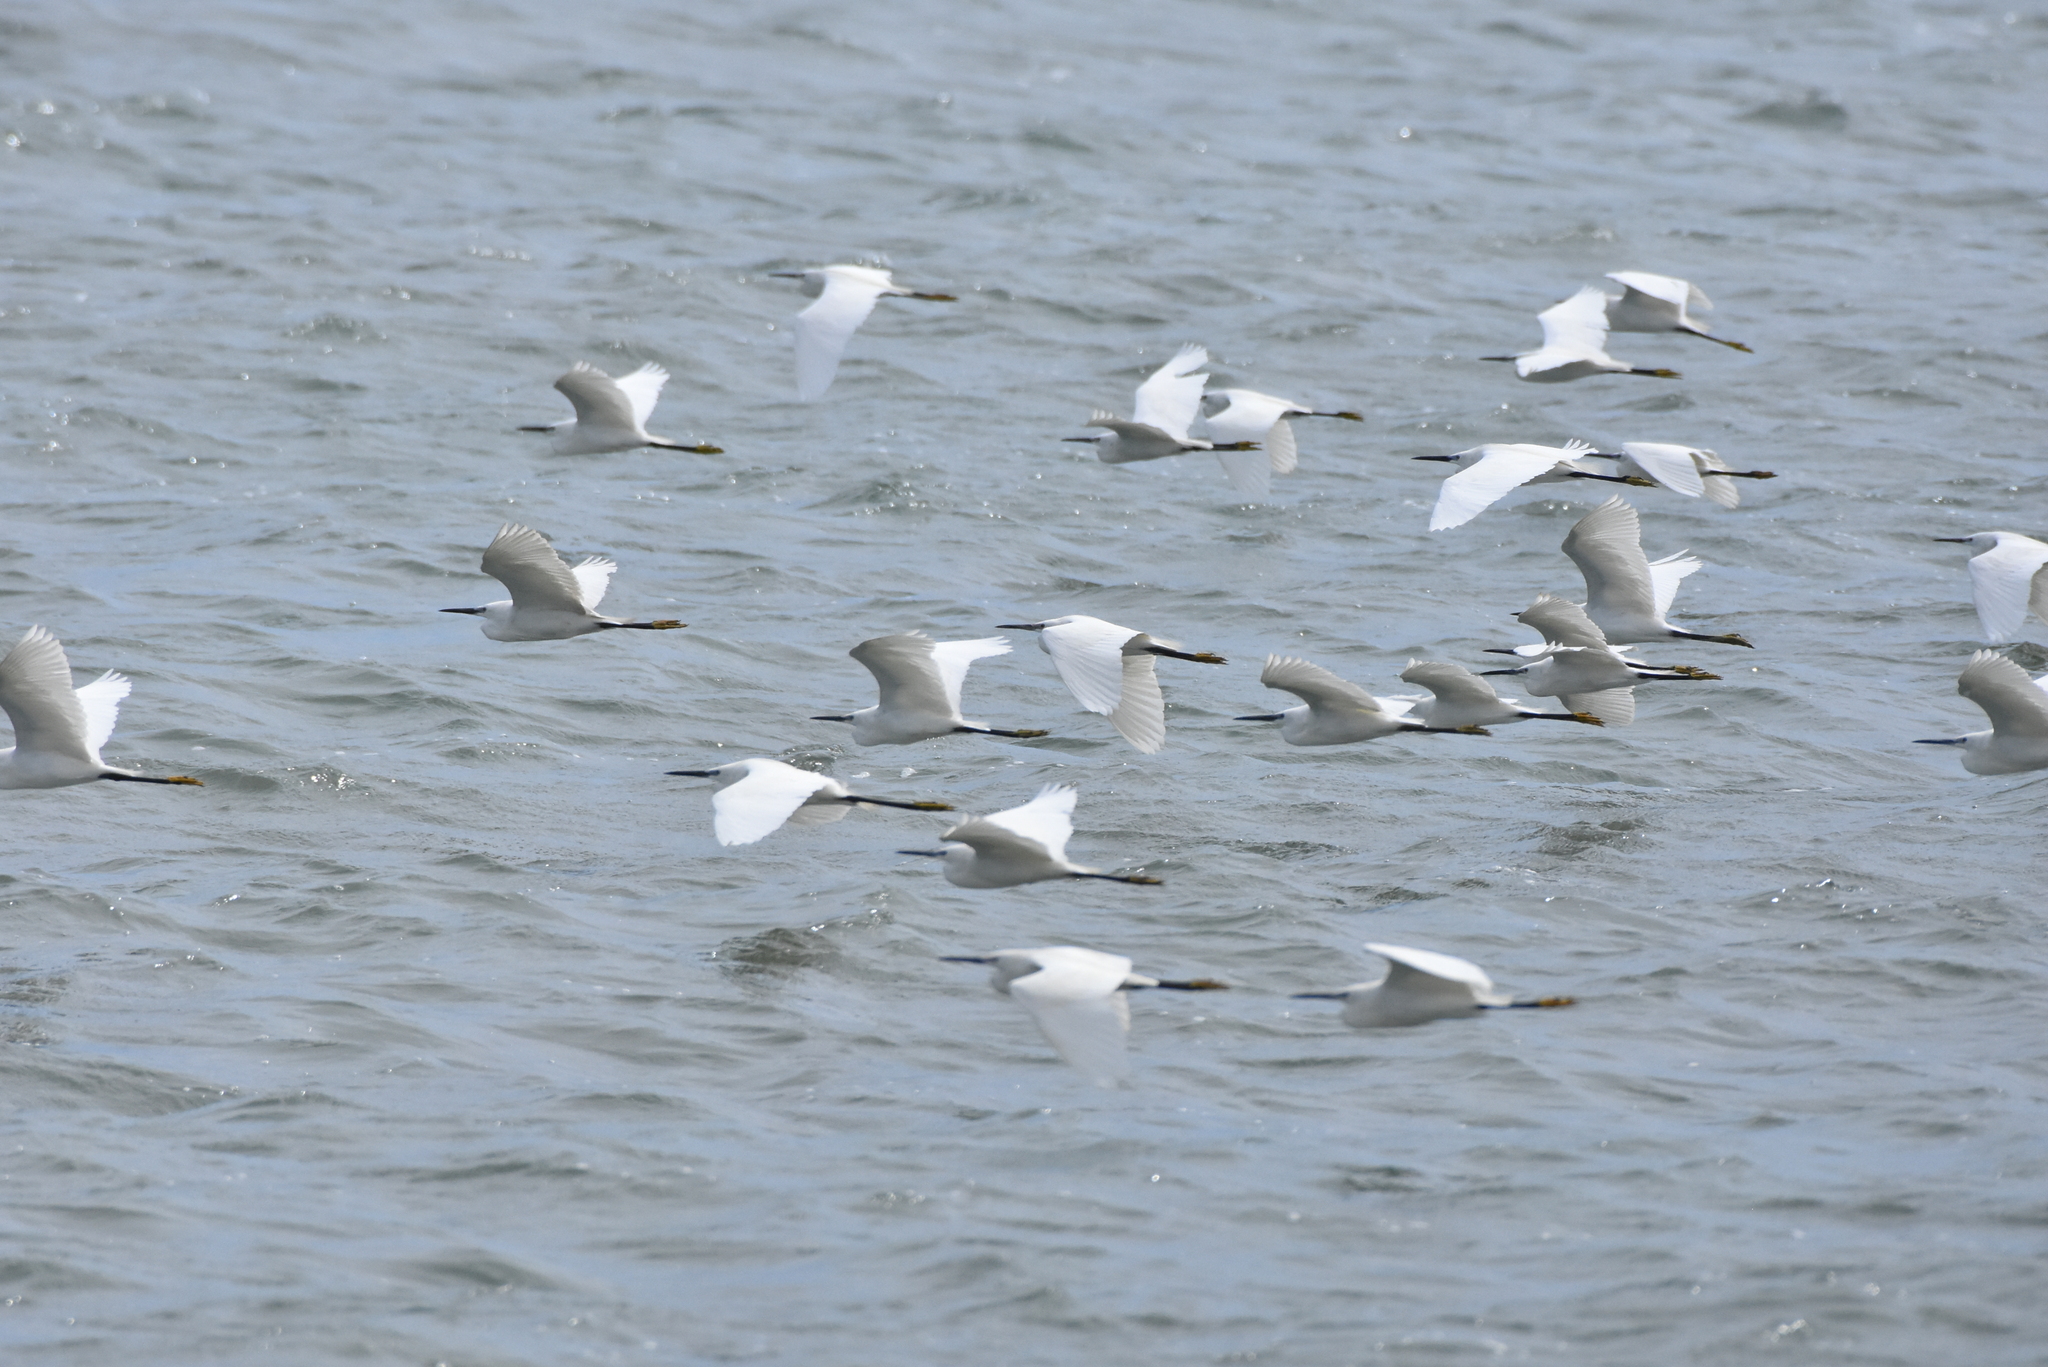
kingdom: Animalia
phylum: Chordata
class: Aves
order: Pelecaniformes
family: Ardeidae
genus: Egretta
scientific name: Egretta garzetta
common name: Little egret
